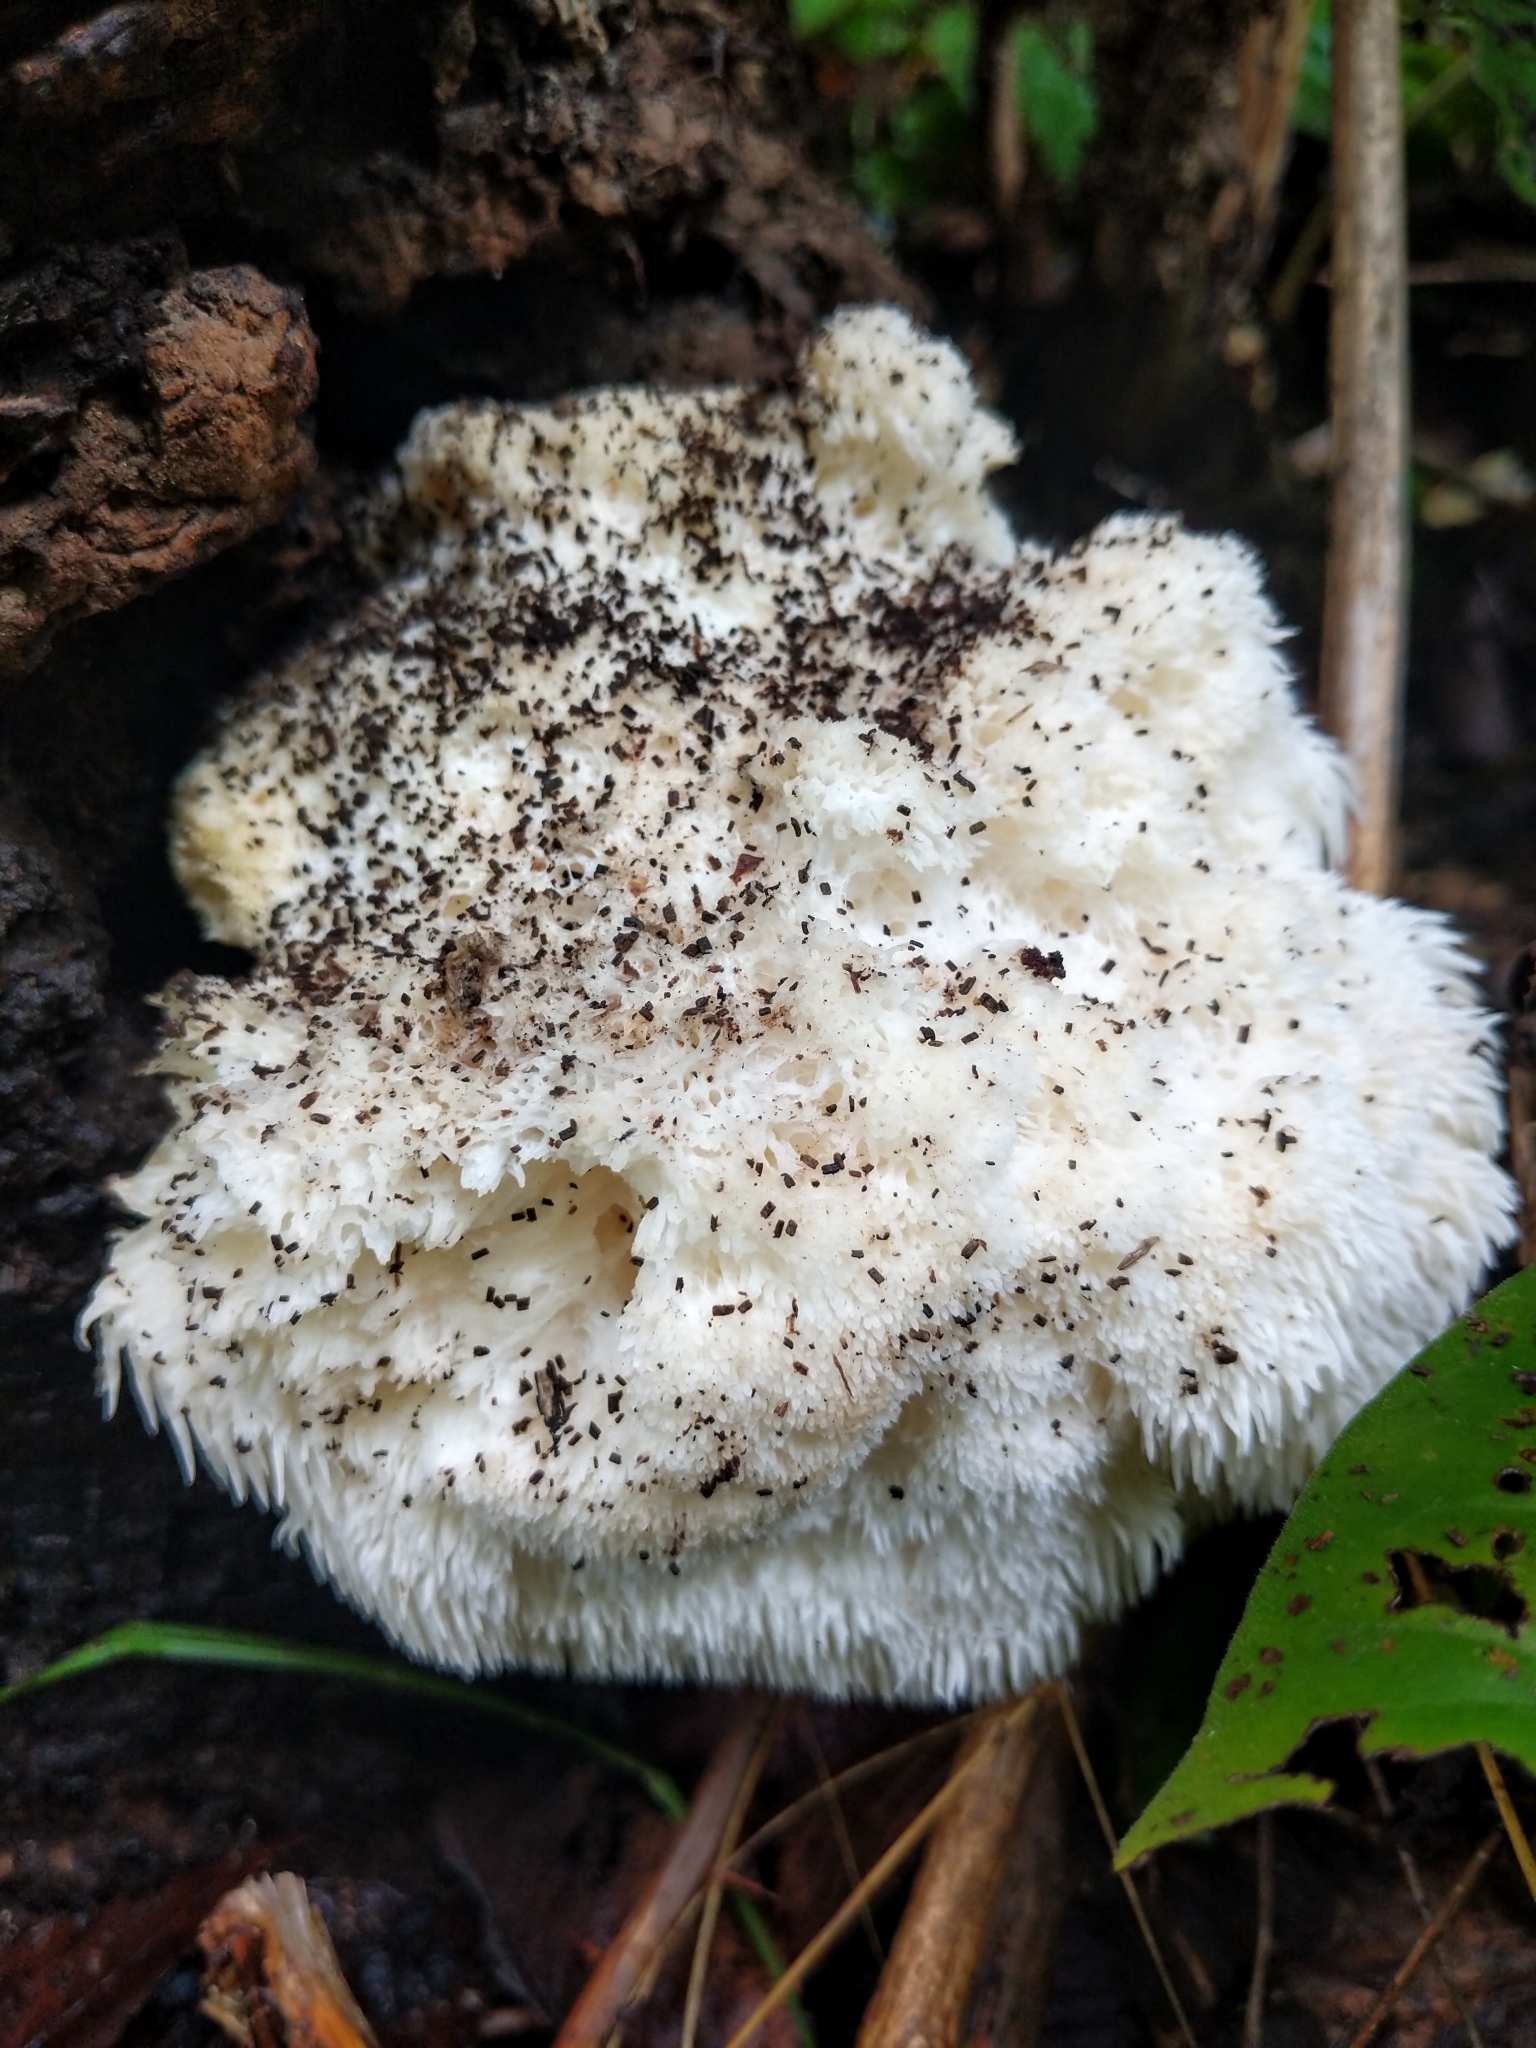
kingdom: Fungi
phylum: Basidiomycota
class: Agaricomycetes
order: Russulales
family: Hericiaceae
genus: Hericium
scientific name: Hericium erinaceus
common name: Bearded tooth
